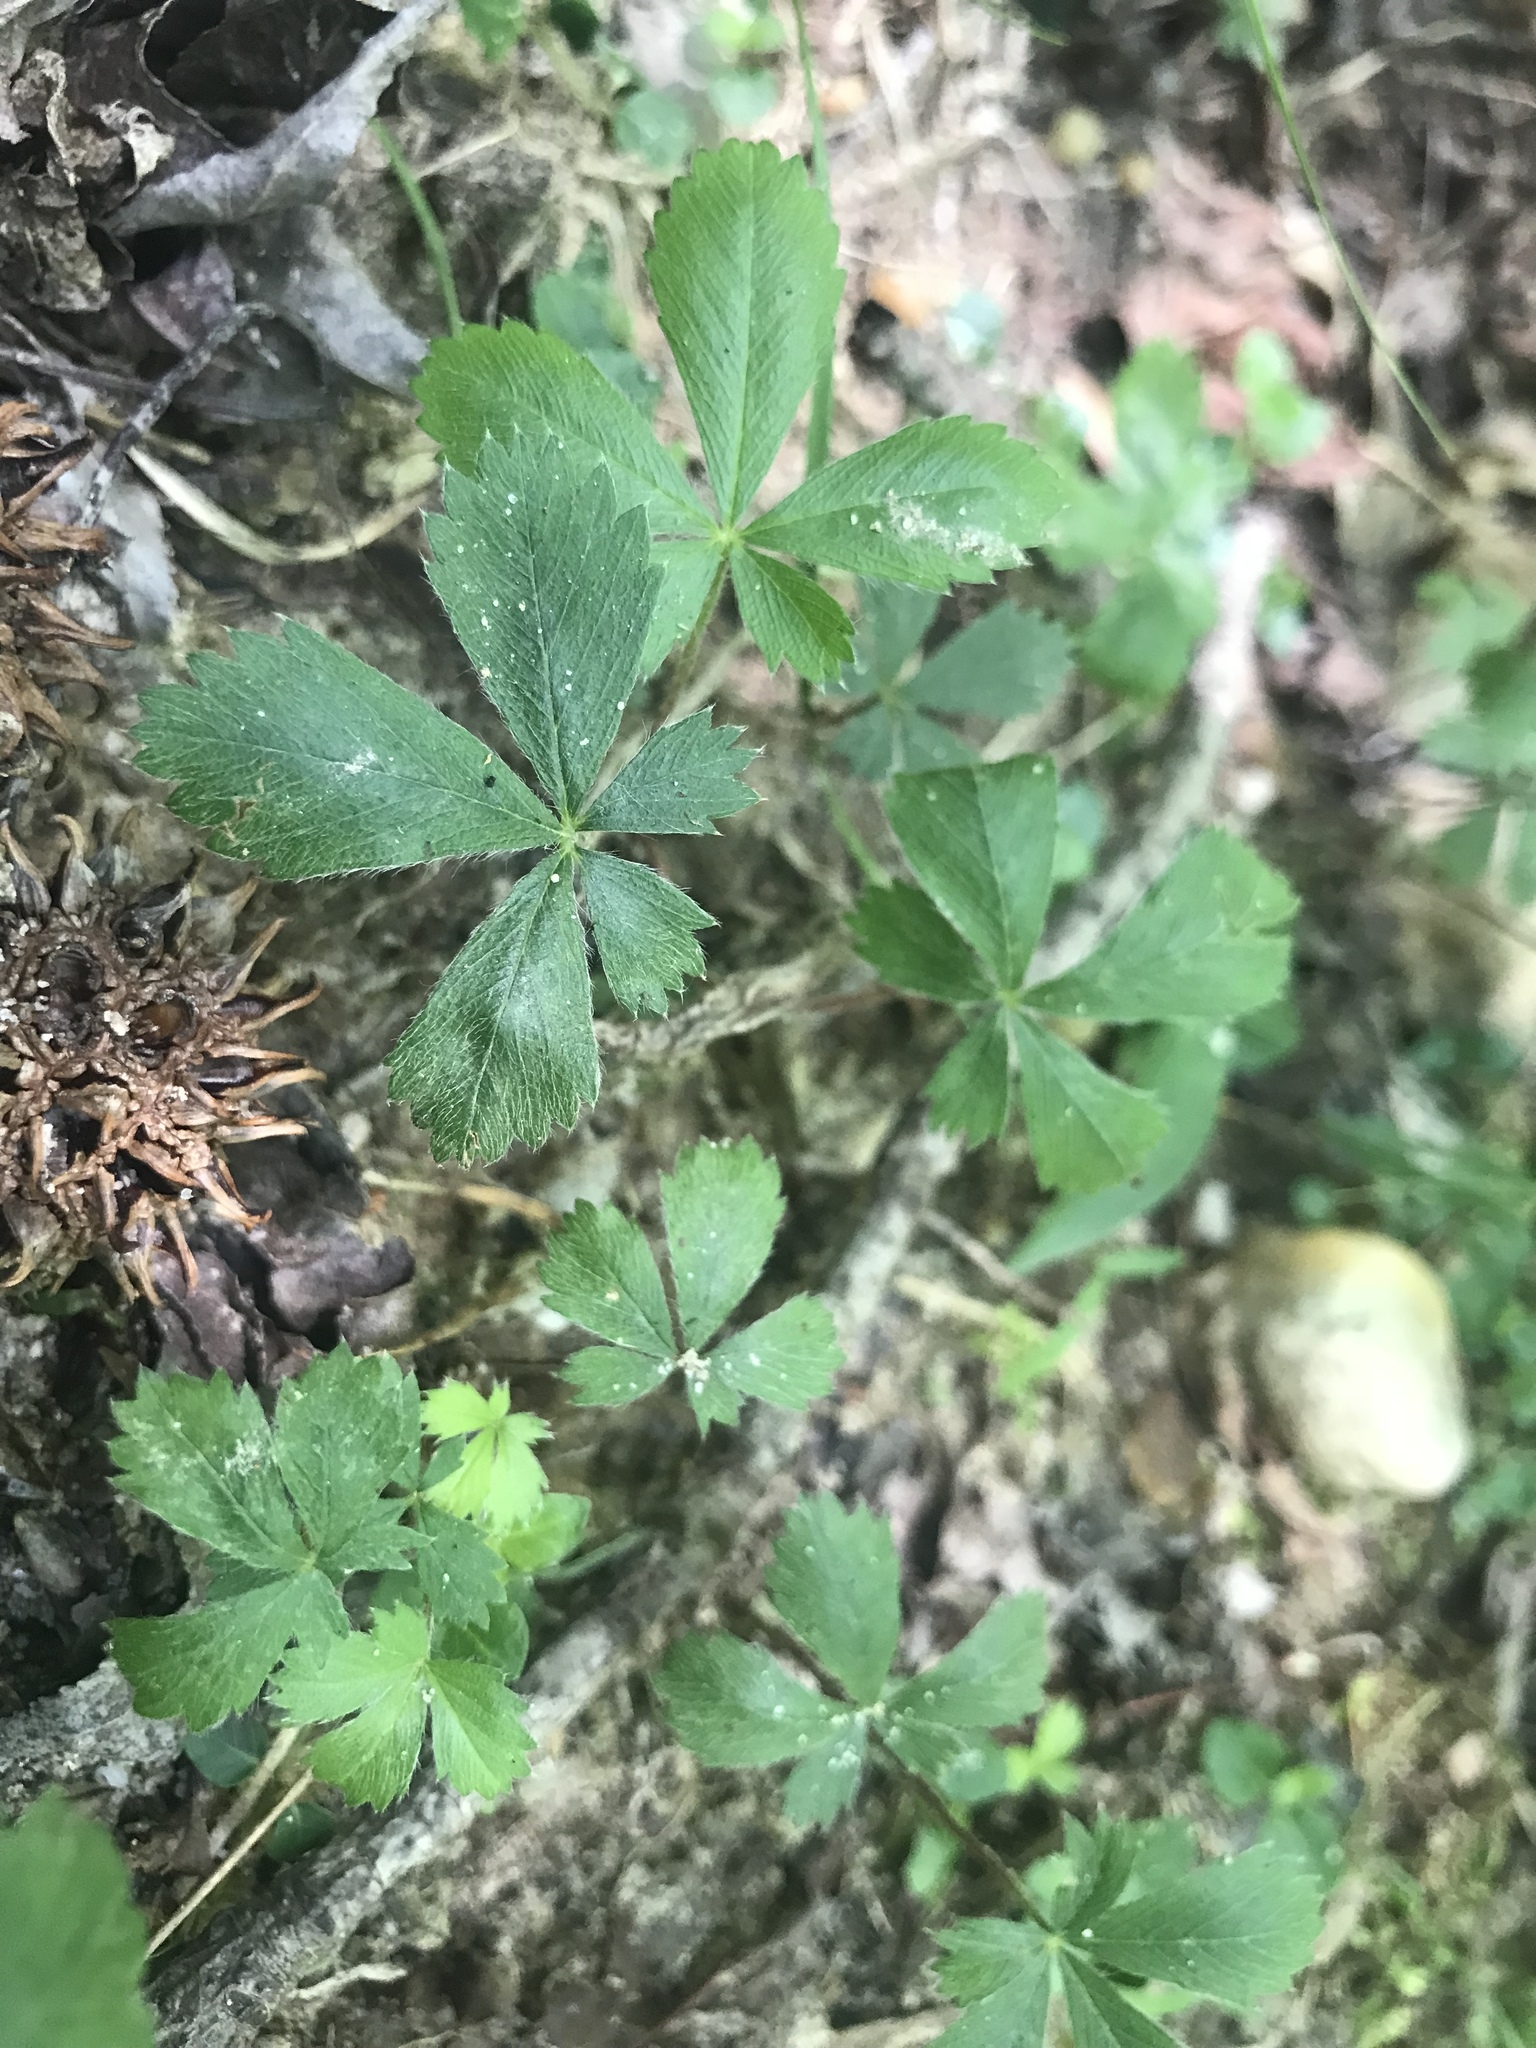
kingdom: Plantae
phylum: Tracheophyta
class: Magnoliopsida
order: Rosales
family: Rosaceae
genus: Potentilla
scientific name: Potentilla canadensis
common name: Canada cinquefoil
